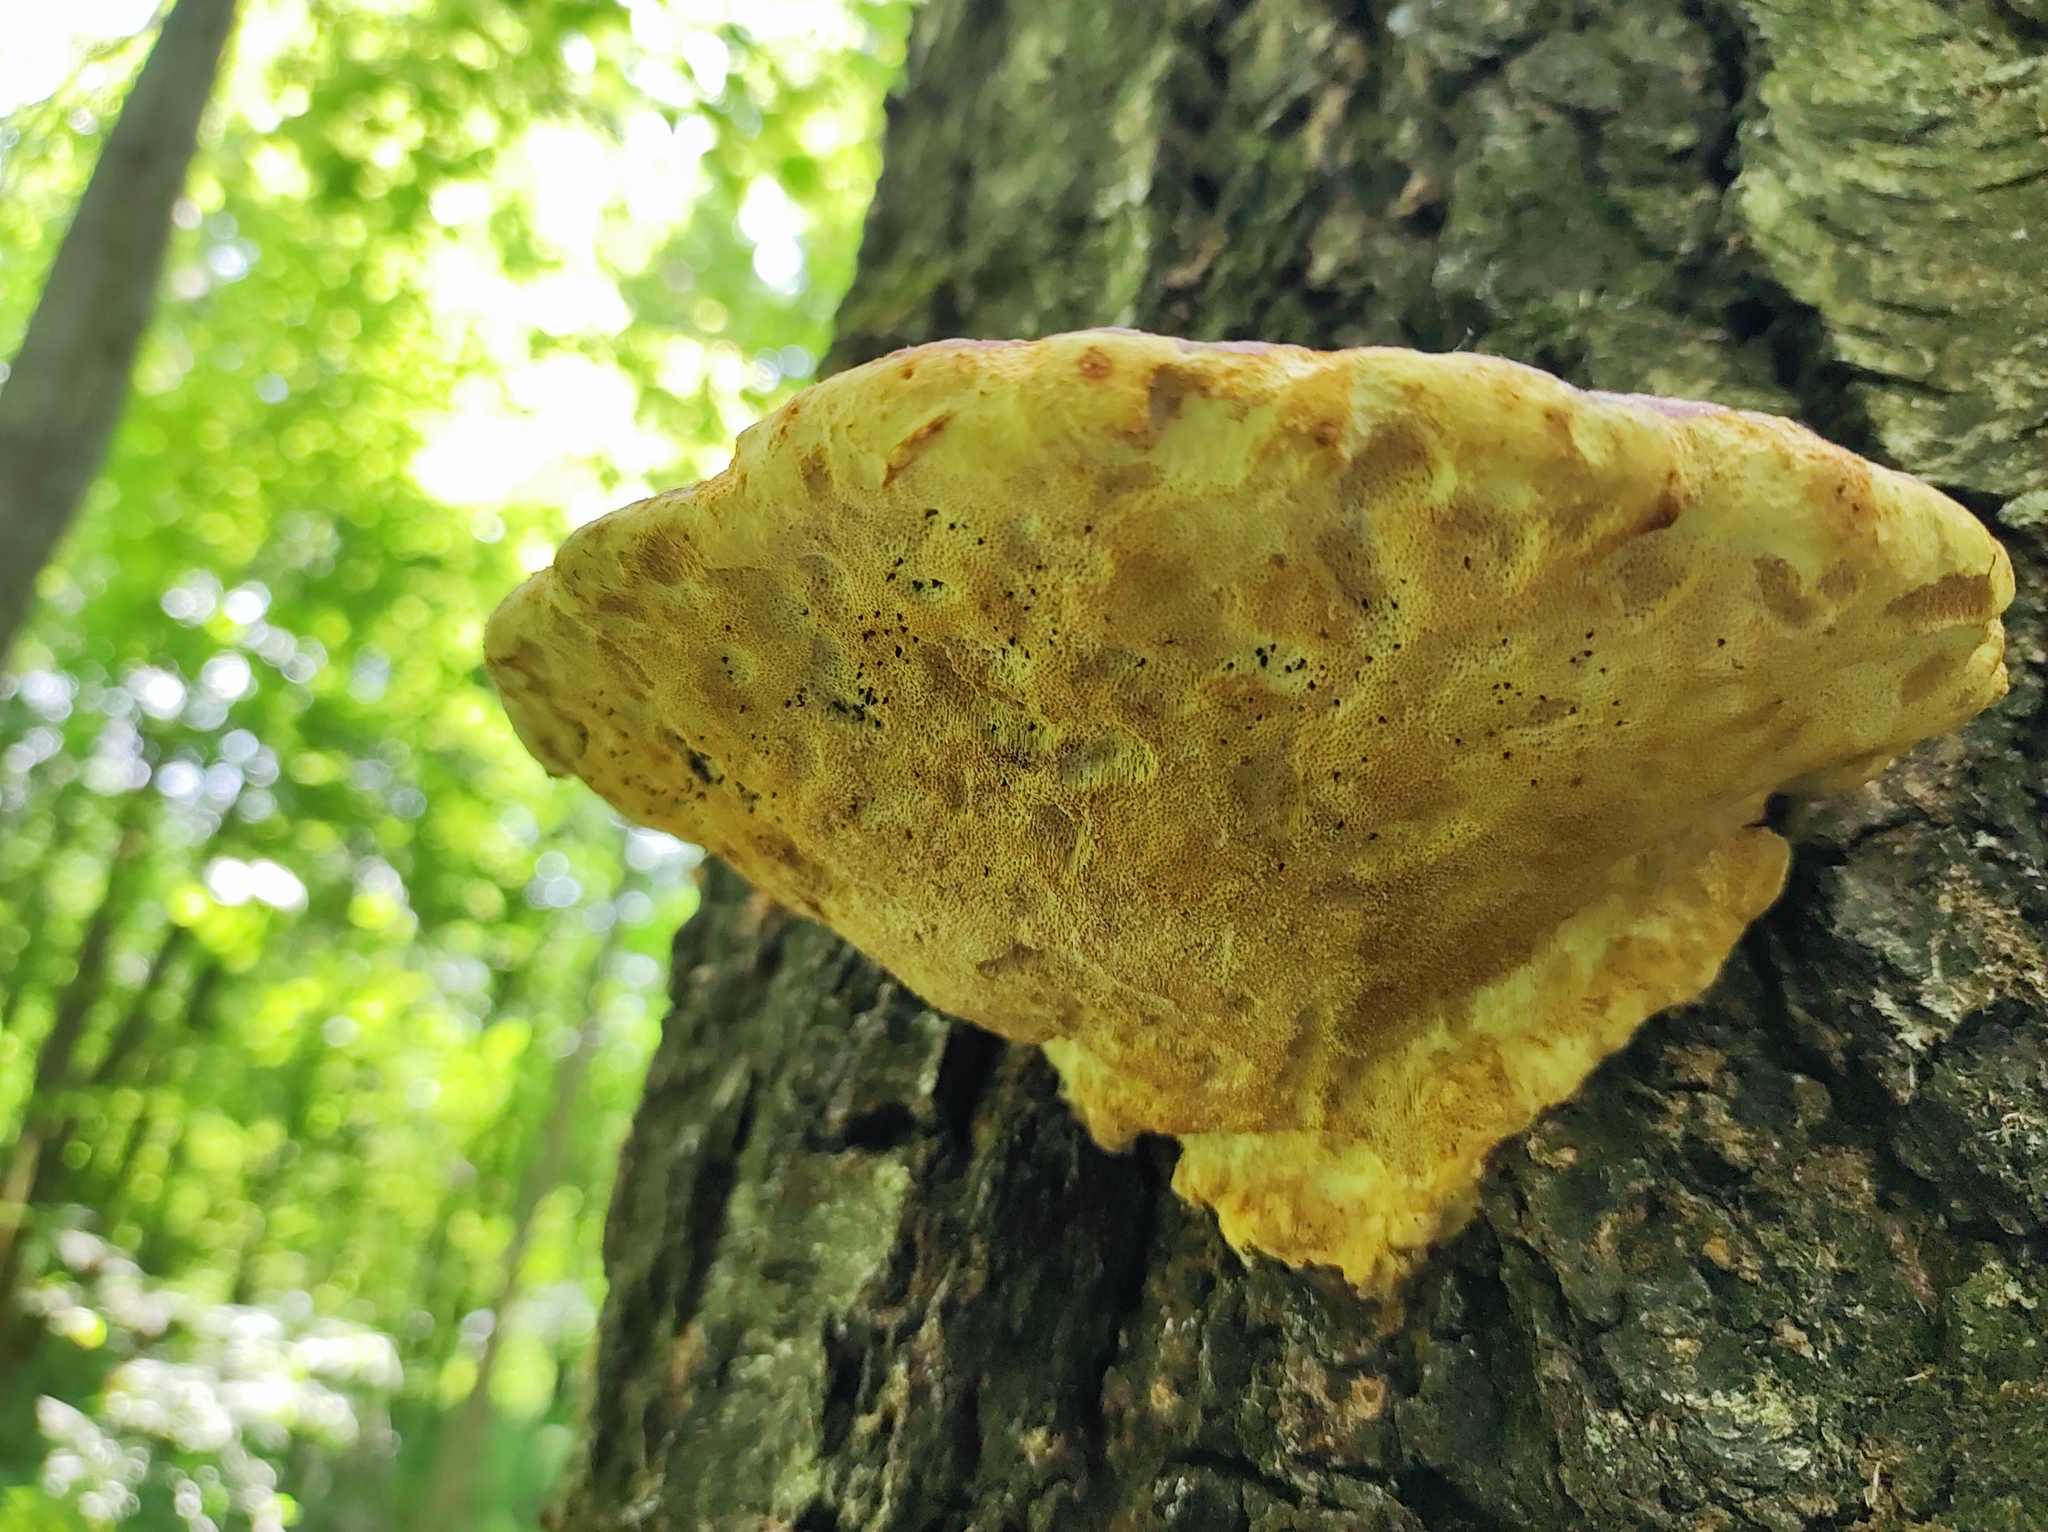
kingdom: Fungi
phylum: Basidiomycota
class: Agaricomycetes
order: Polyporales
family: Fomitopsidaceae
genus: Fomitopsis
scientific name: Fomitopsis pinicola
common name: Red-belted bracket
